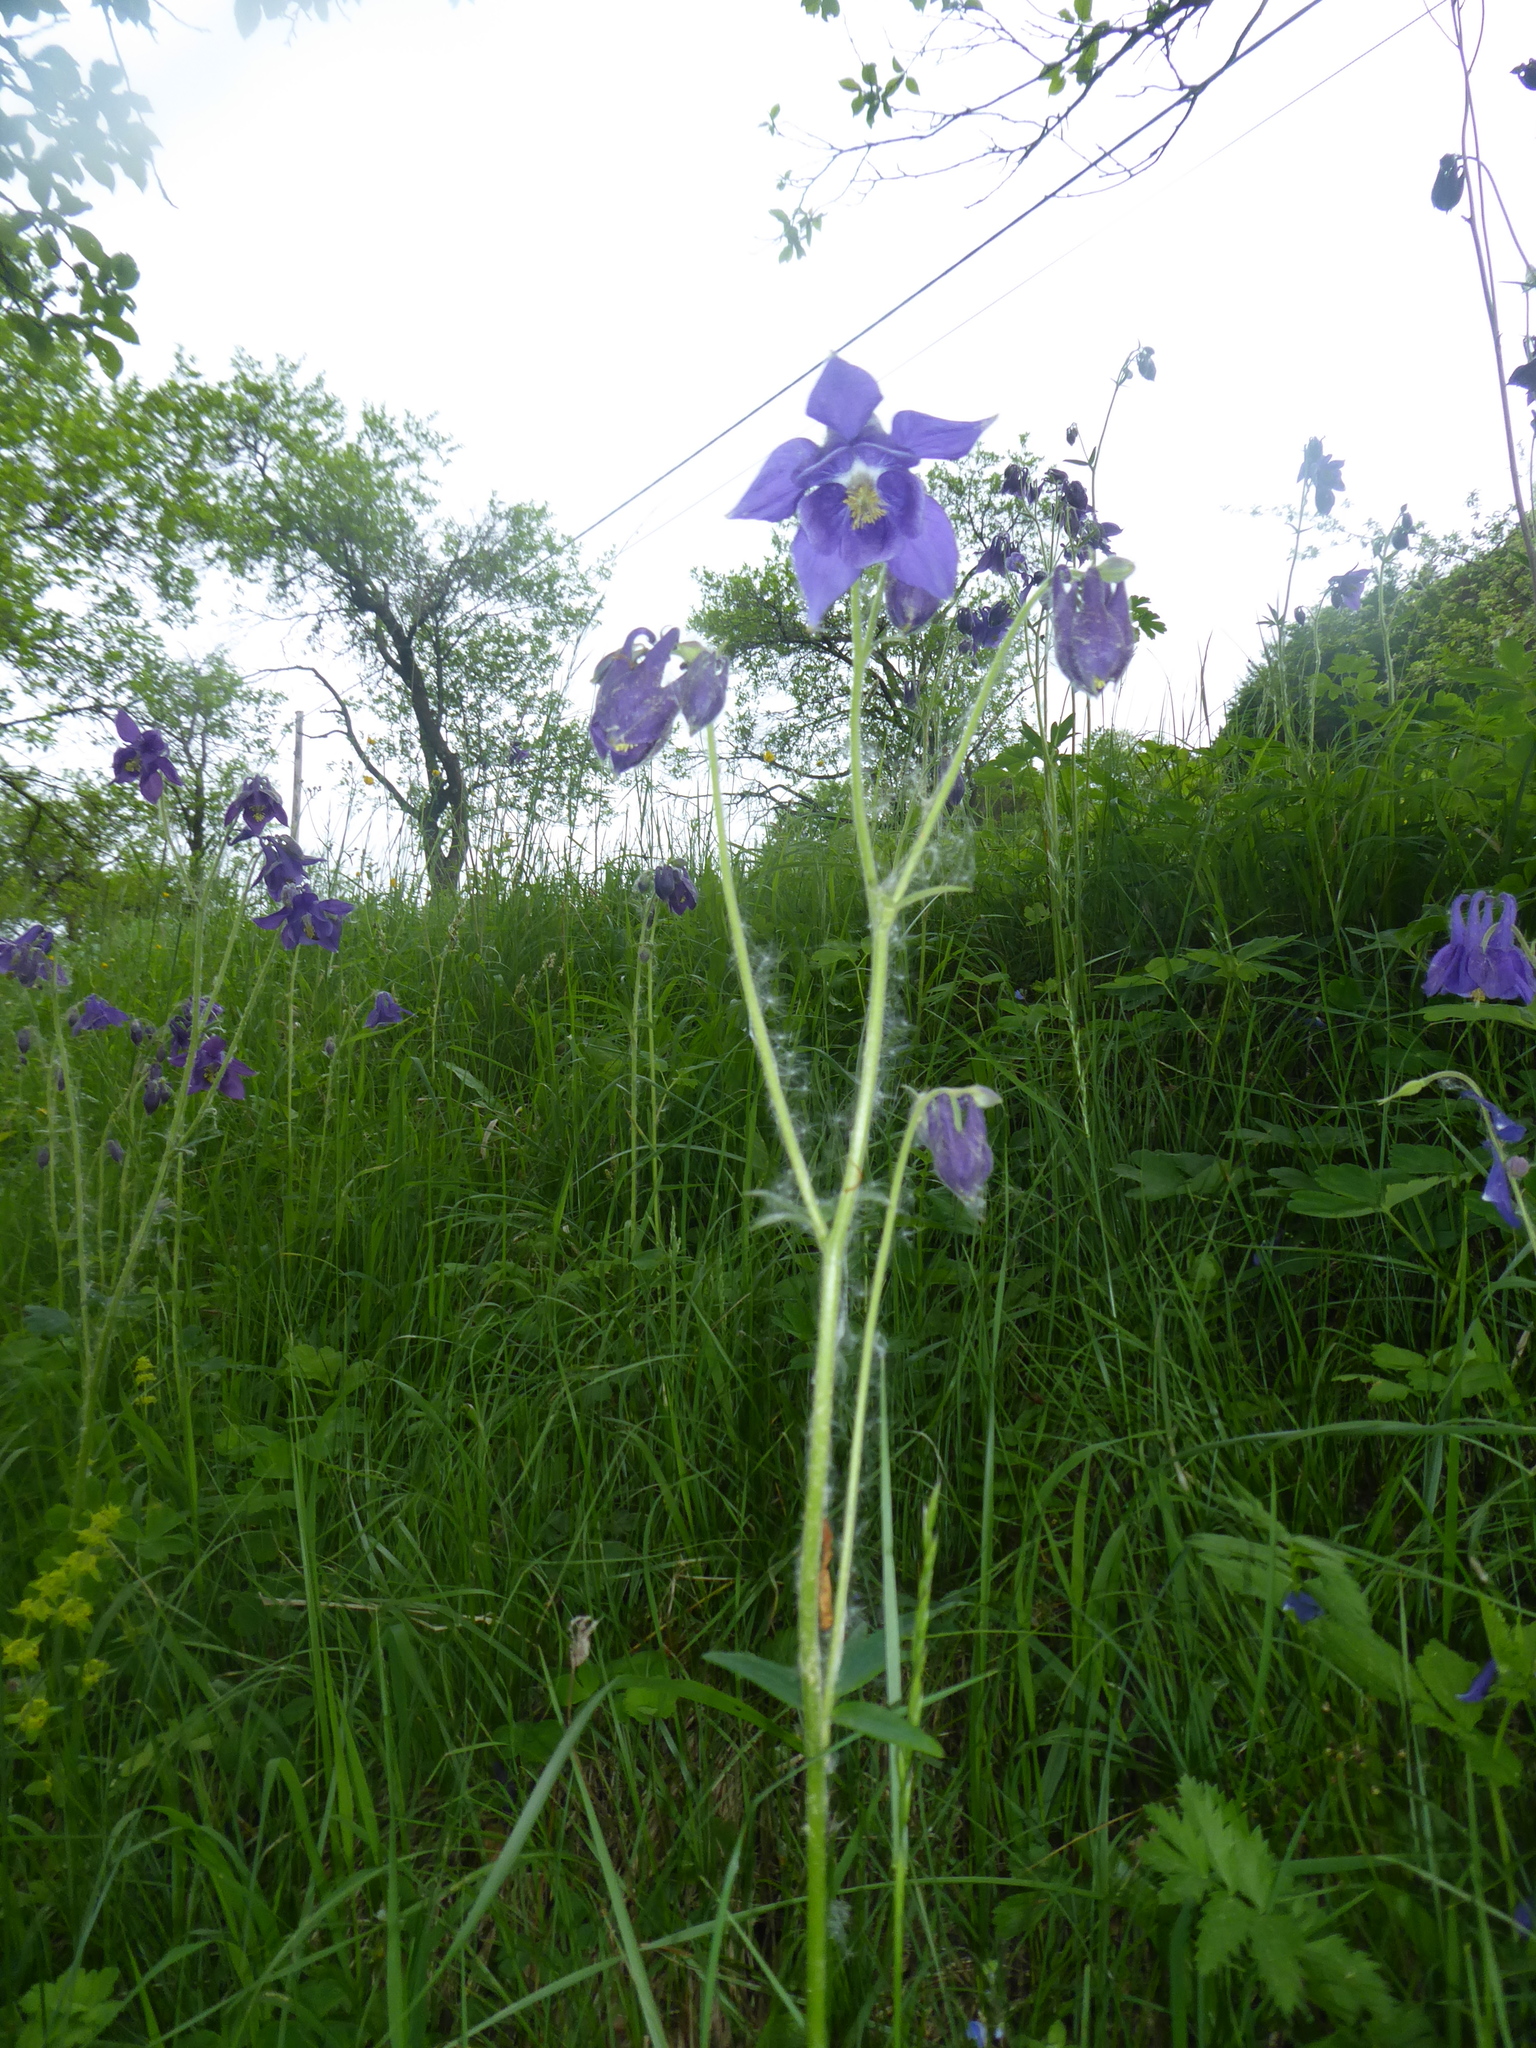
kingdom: Plantae
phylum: Tracheophyta
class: Magnoliopsida
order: Ranunculales
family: Ranunculaceae
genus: Aquilegia
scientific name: Aquilegia vulgaris
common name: Columbine
